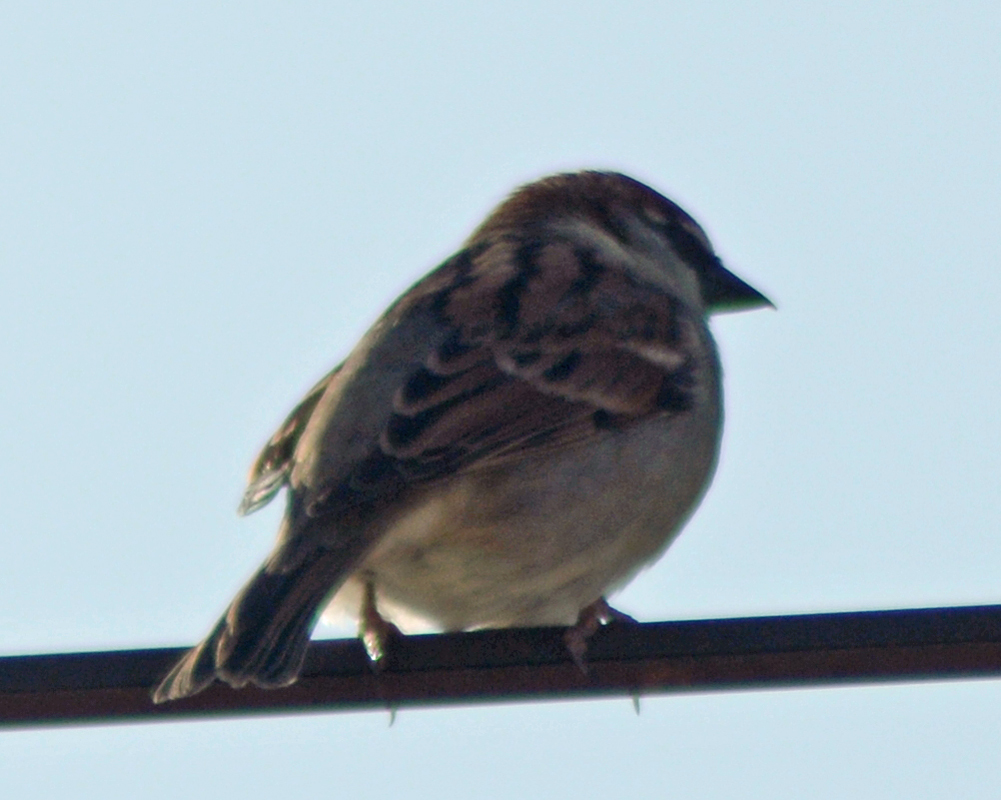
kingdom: Animalia
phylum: Chordata
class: Aves
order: Passeriformes
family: Passeridae
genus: Passer
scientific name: Passer domesticus
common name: House sparrow
